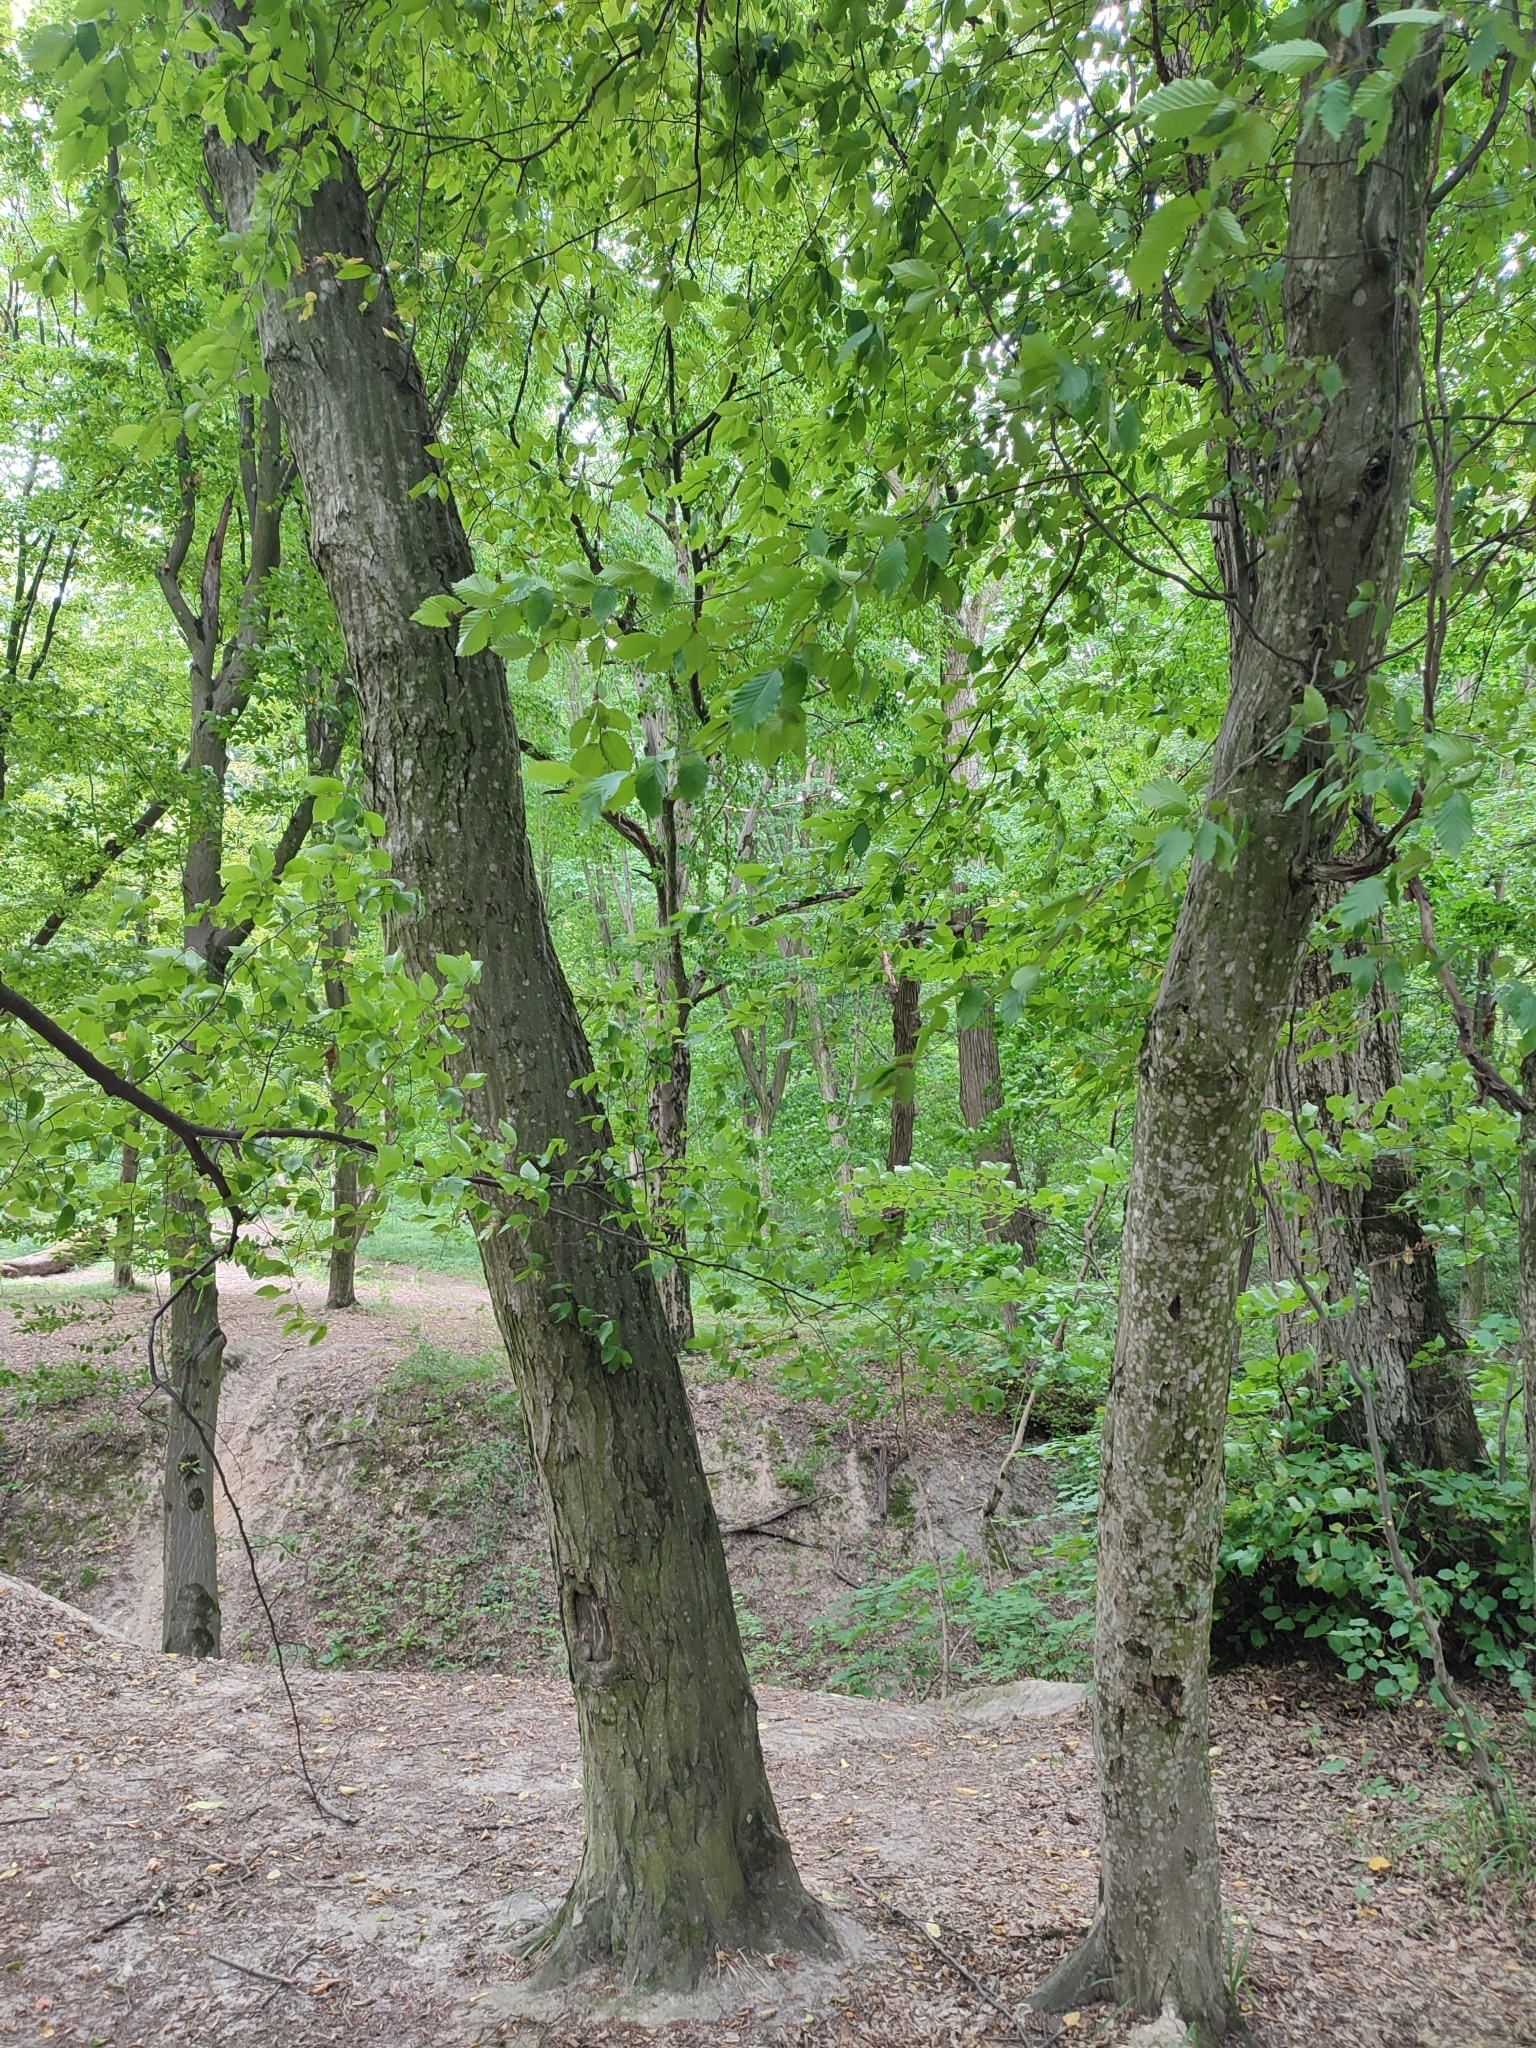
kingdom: Plantae
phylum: Tracheophyta
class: Magnoliopsida
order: Fagales
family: Betulaceae
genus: Carpinus
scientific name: Carpinus betulus
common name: Hornbeam
